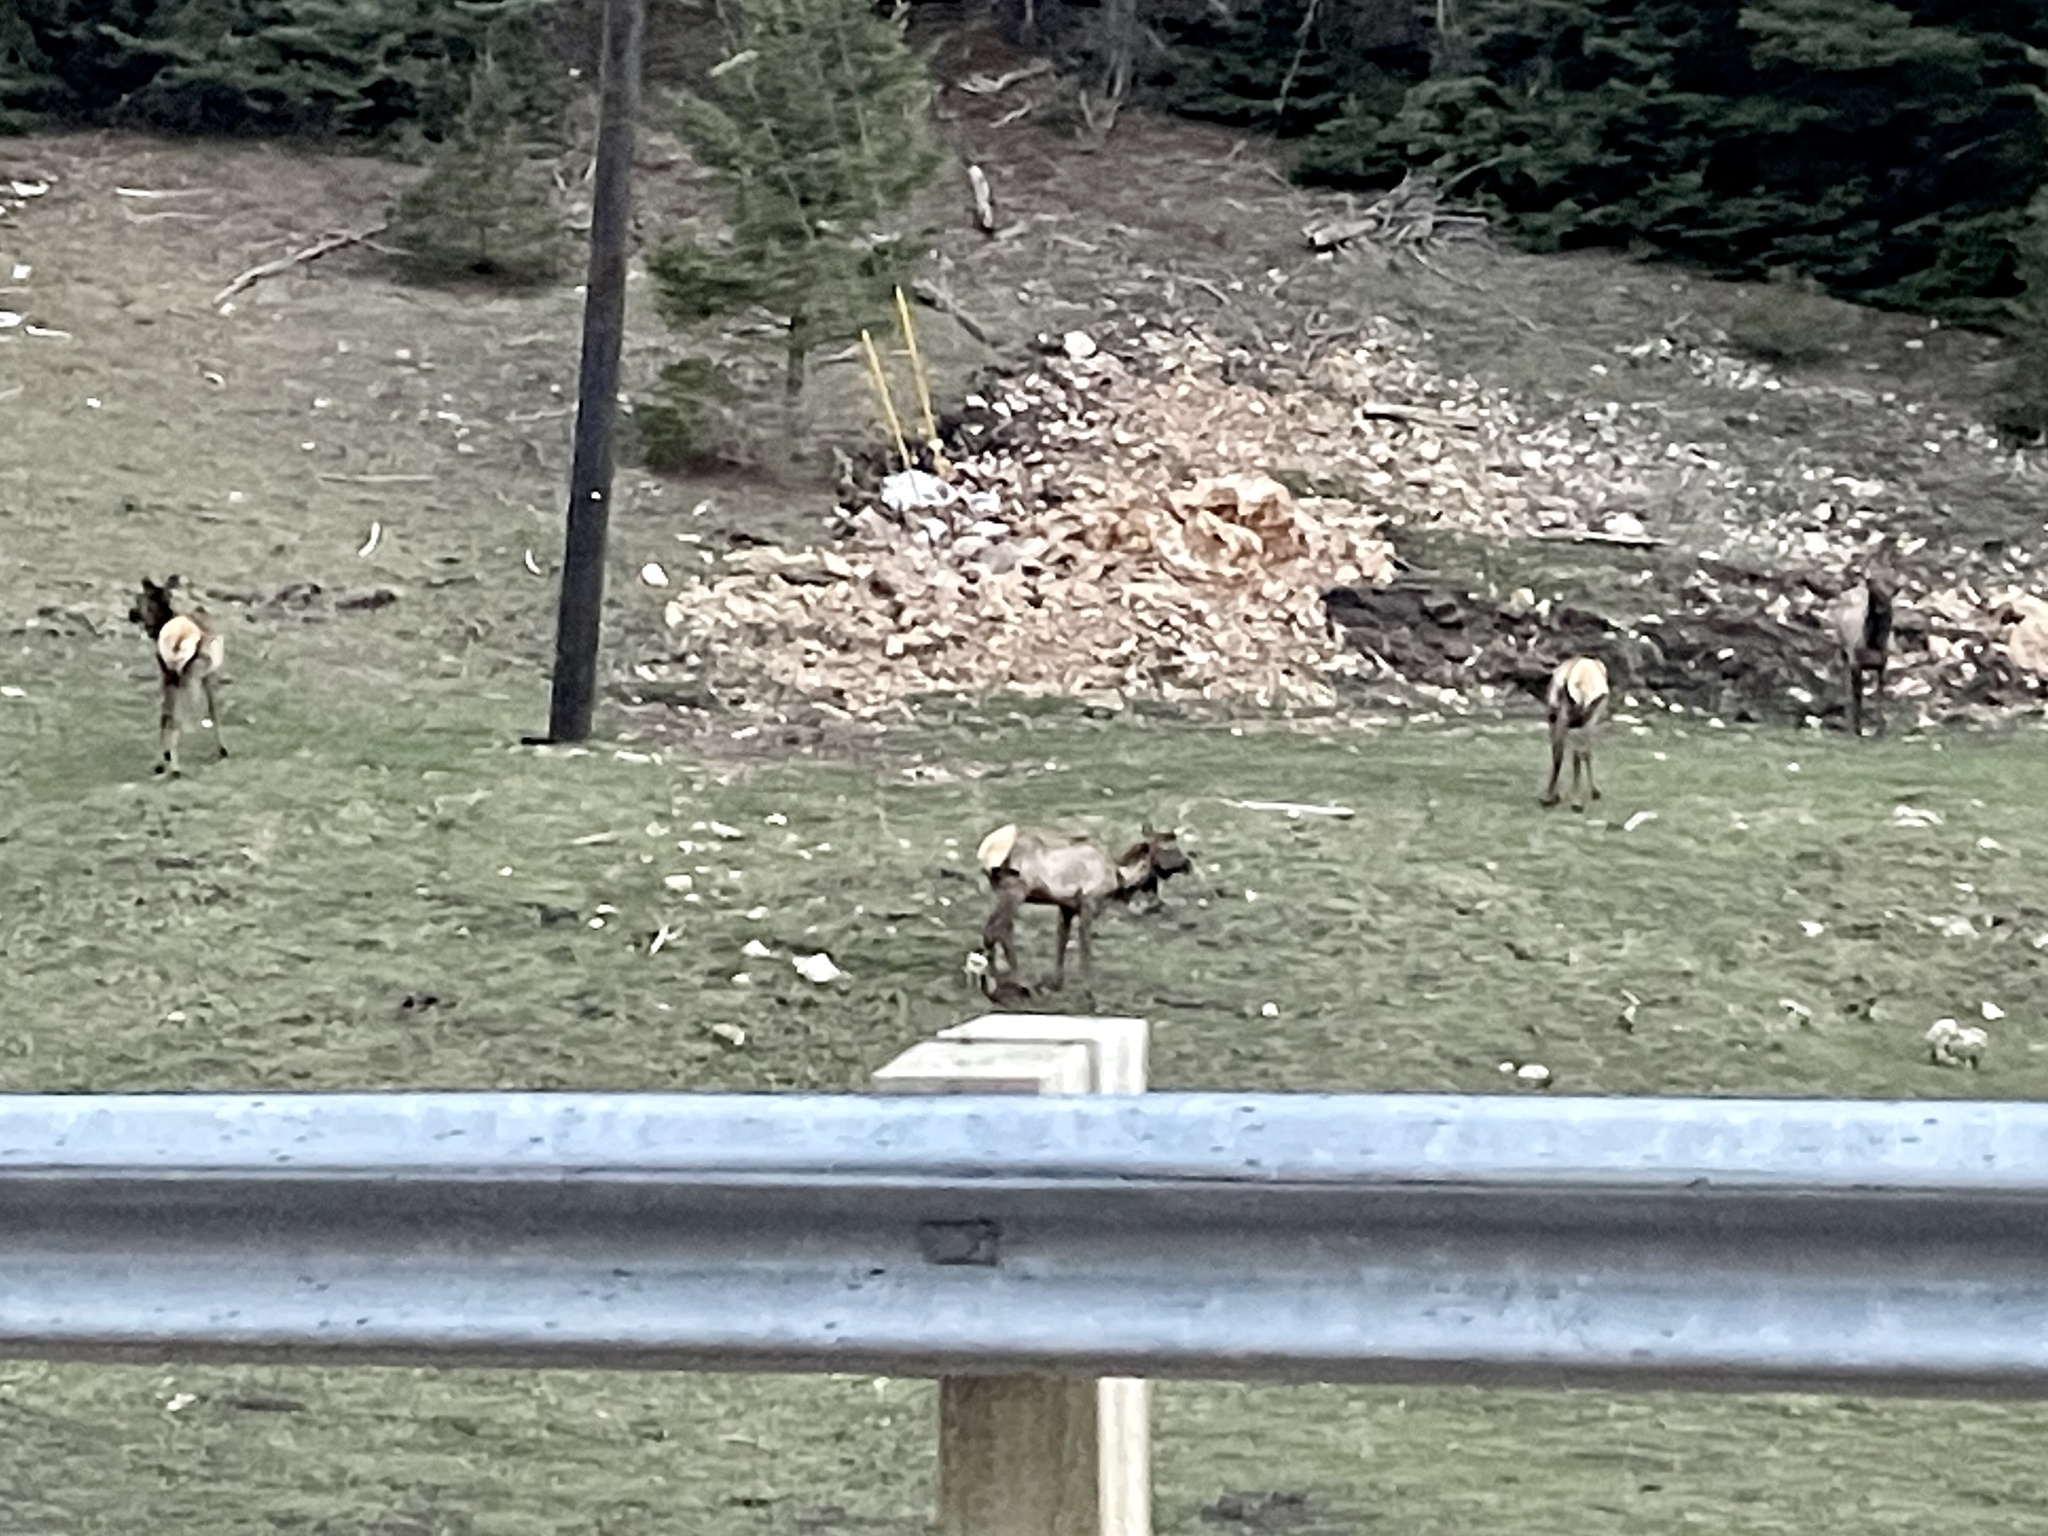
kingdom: Animalia
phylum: Chordata
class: Mammalia
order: Artiodactyla
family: Cervidae
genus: Cervus
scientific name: Cervus elaphus
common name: Red deer
